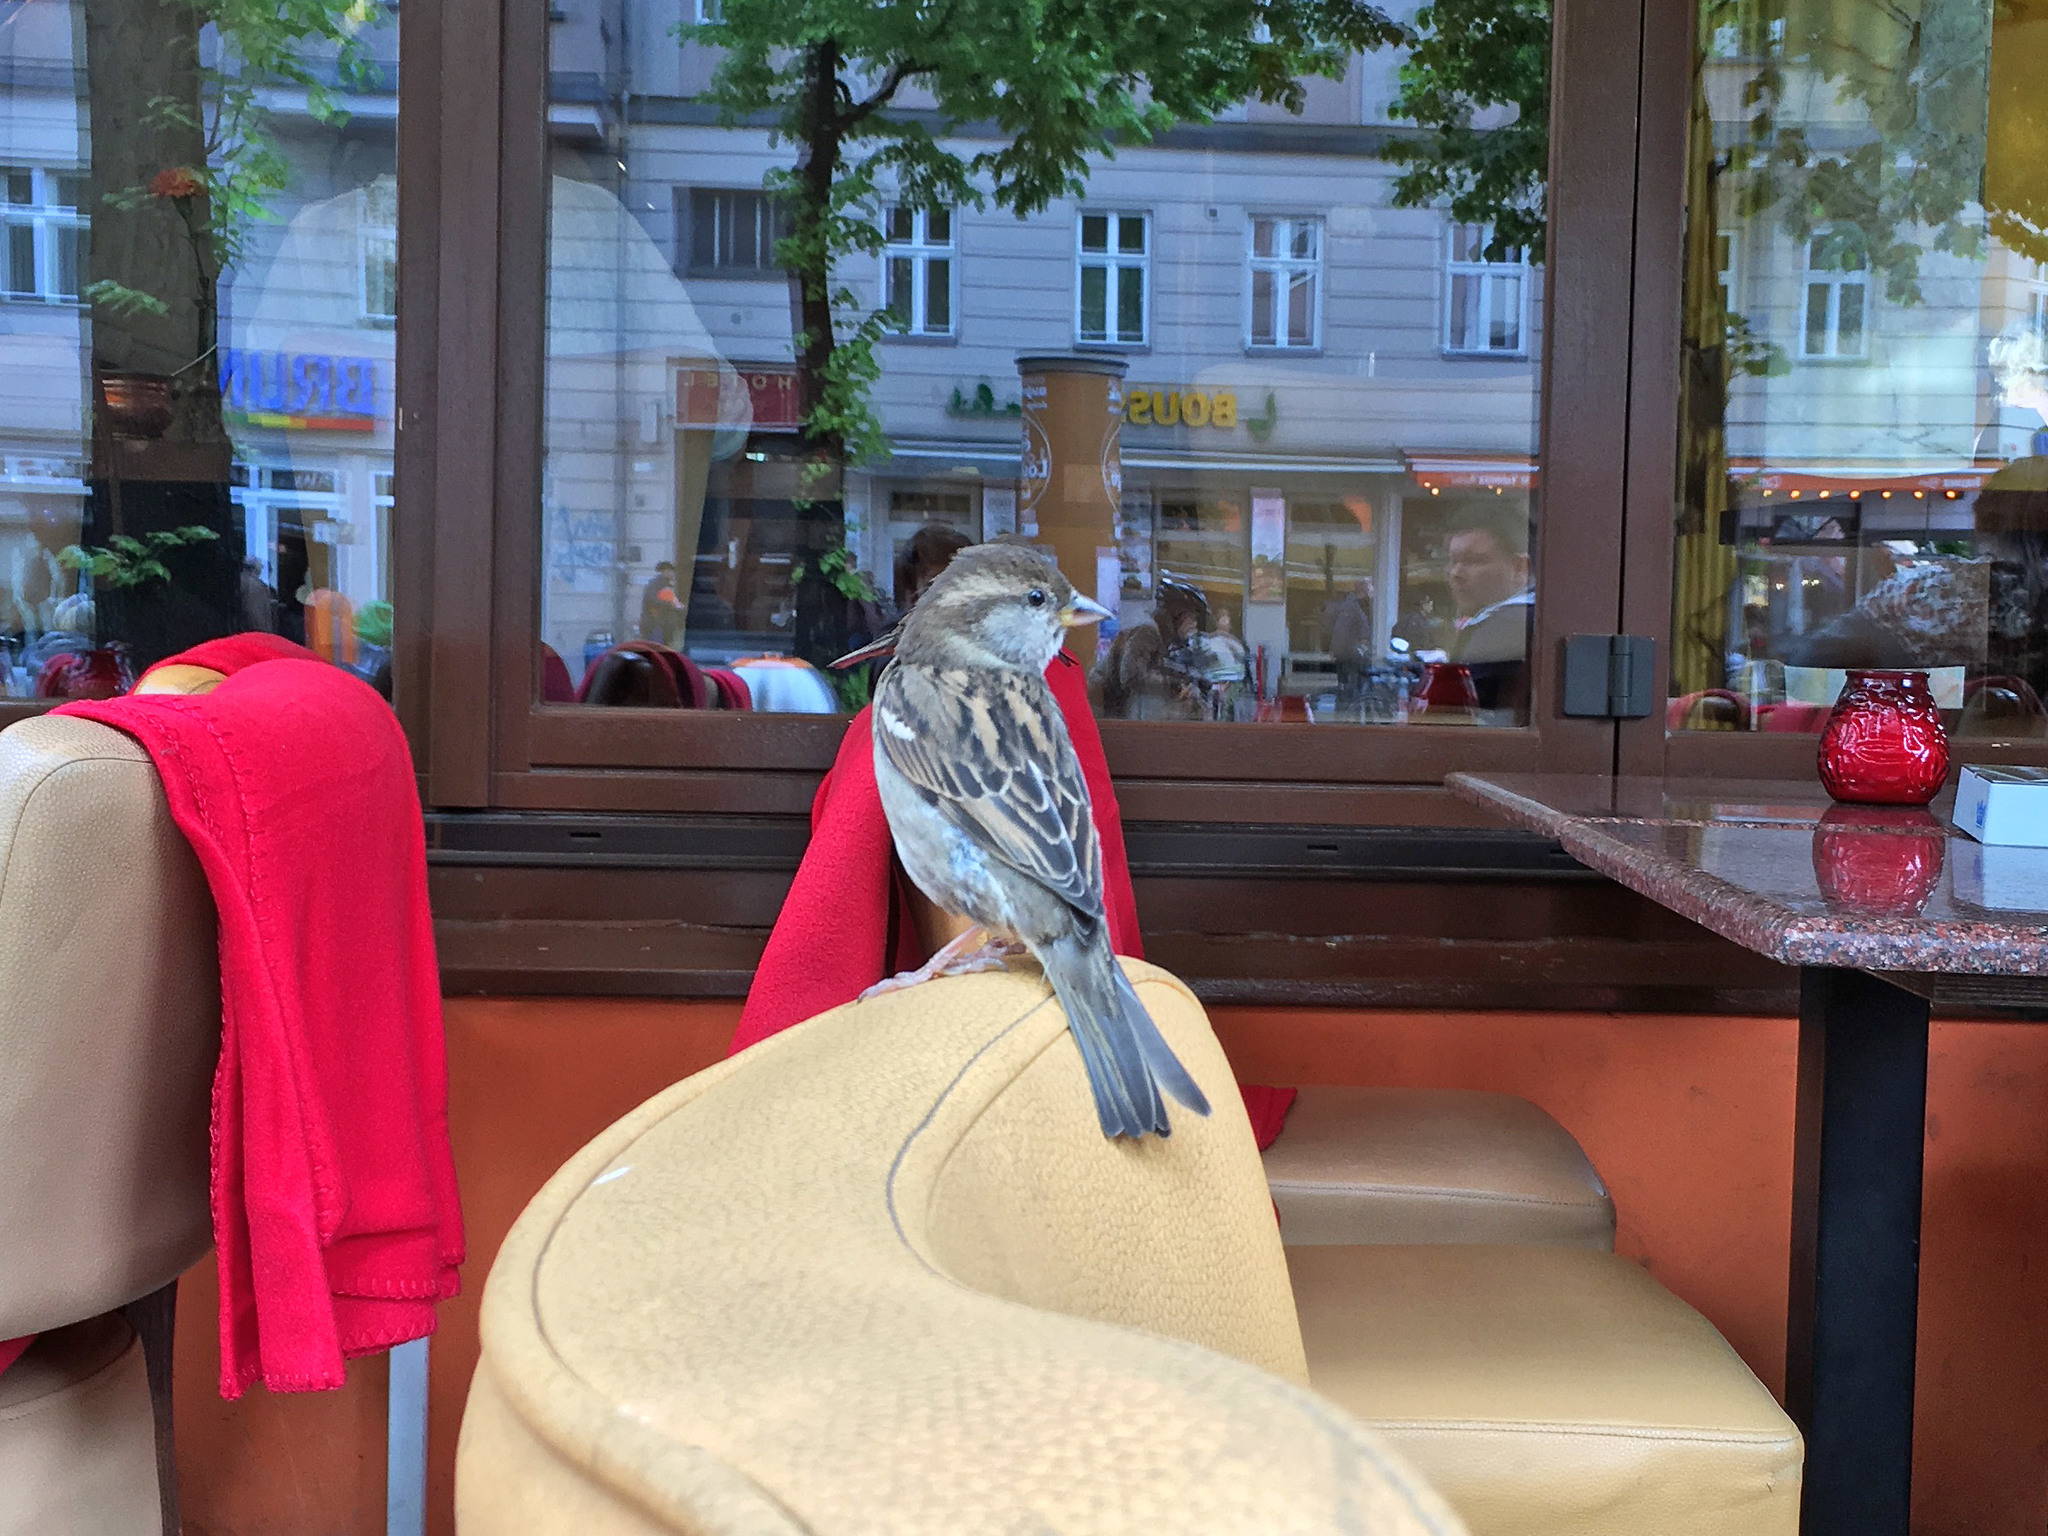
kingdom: Animalia
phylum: Chordata
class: Aves
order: Passeriformes
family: Passeridae
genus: Passer
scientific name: Passer domesticus
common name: House sparrow
